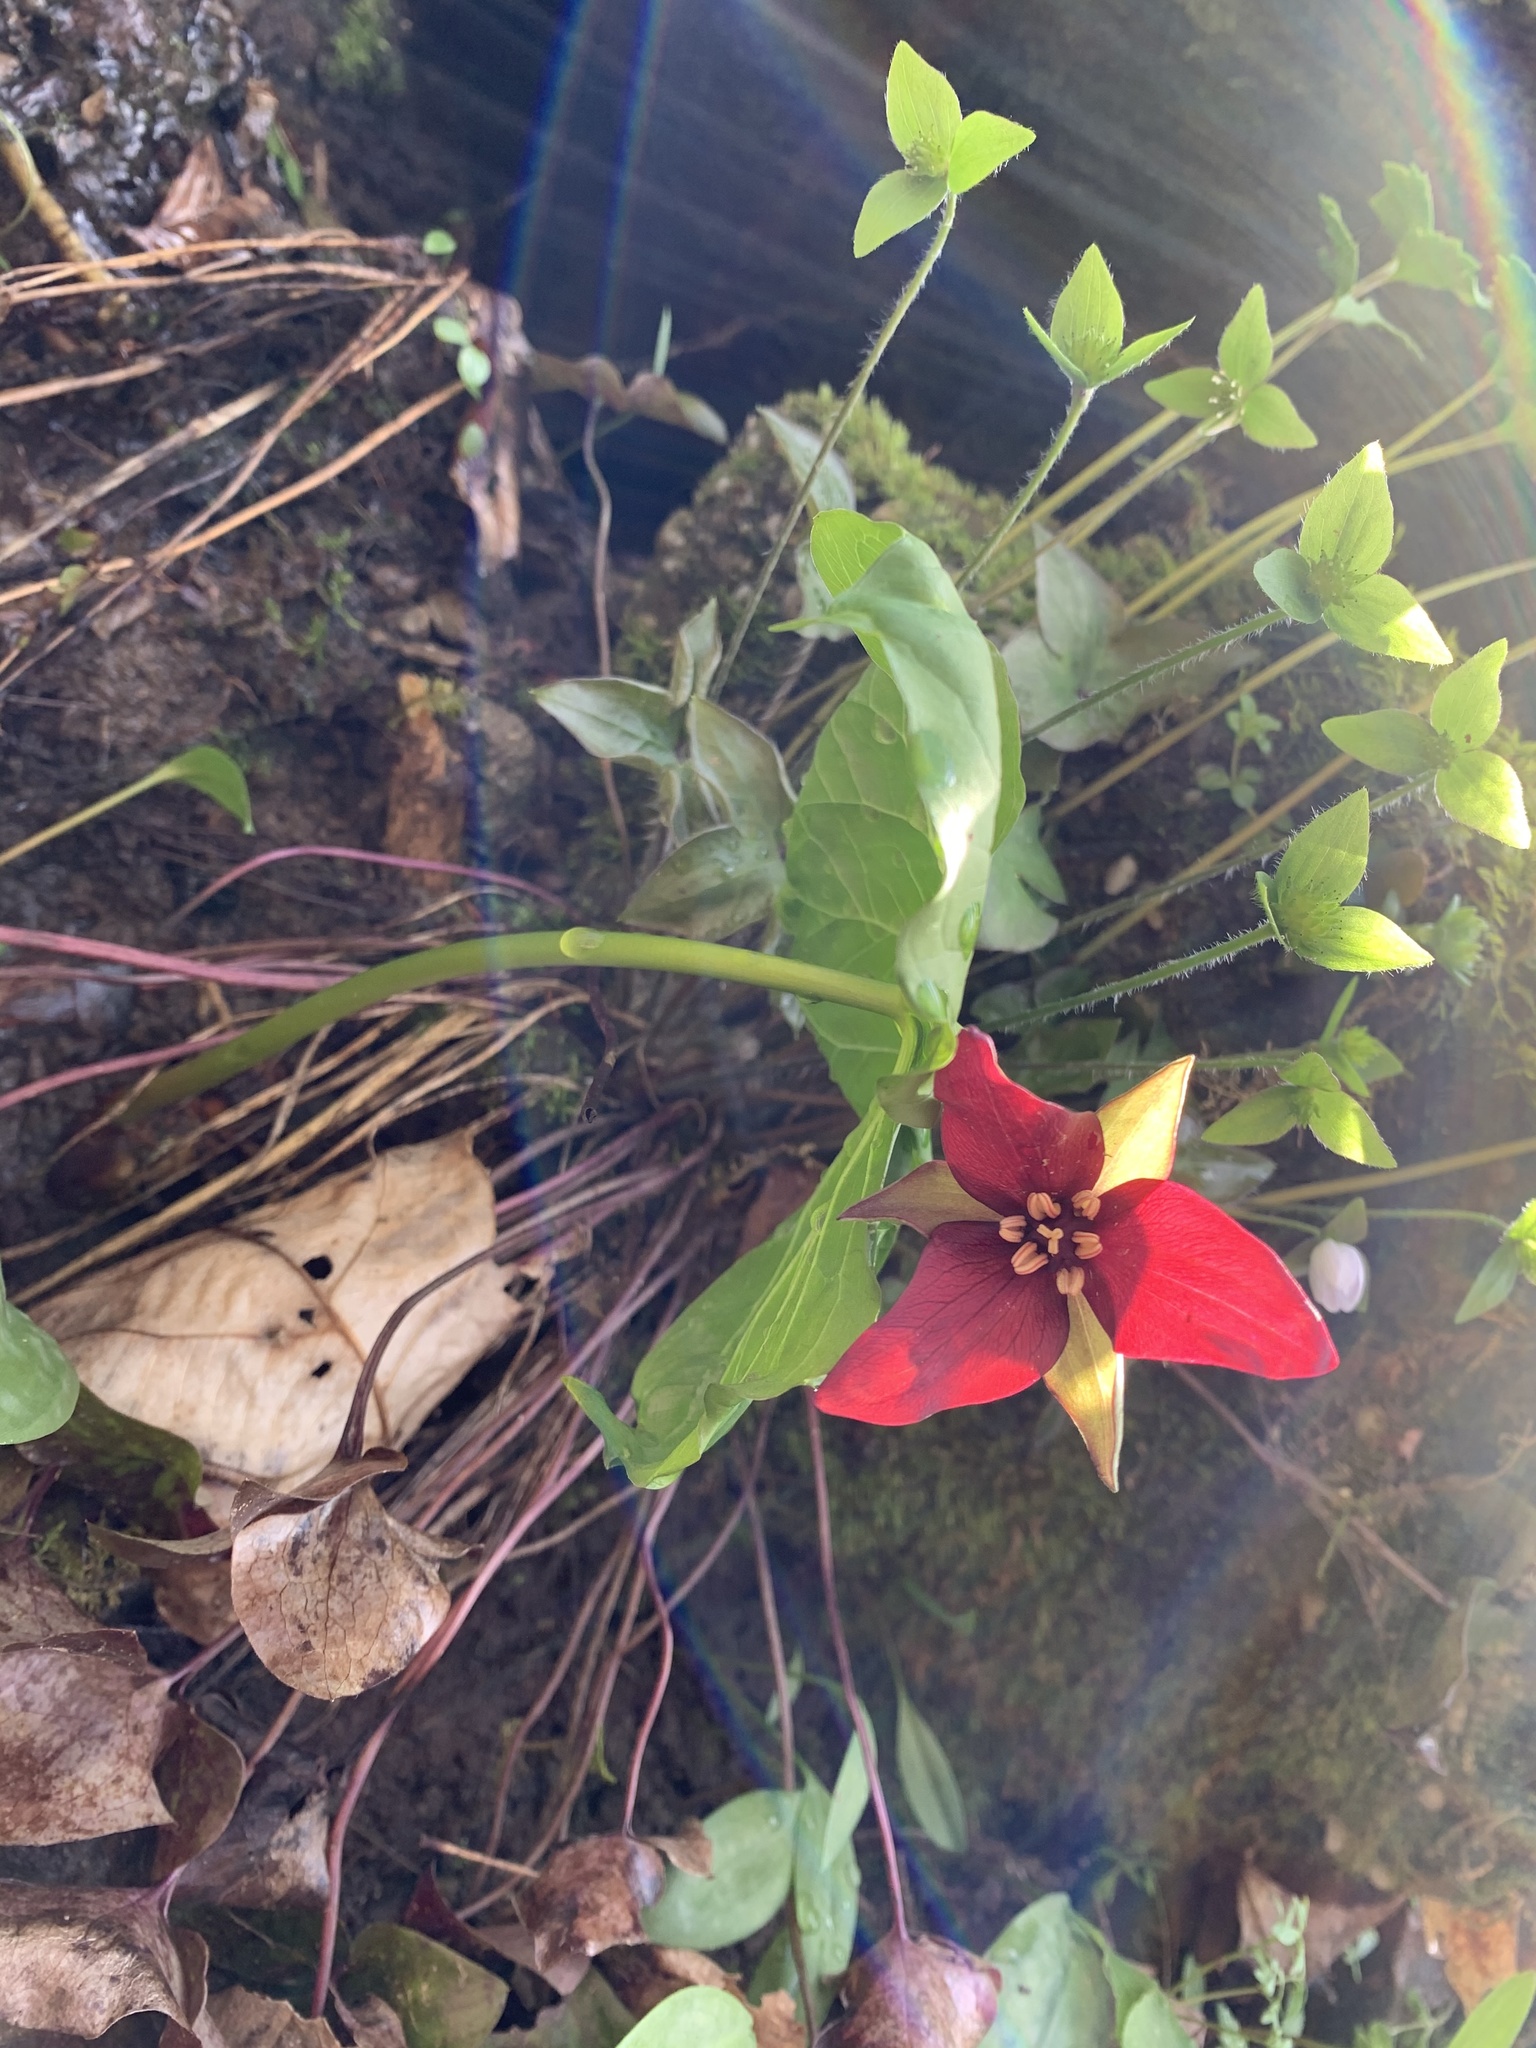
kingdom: Plantae
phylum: Tracheophyta
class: Liliopsida
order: Liliales
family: Melanthiaceae
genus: Trillium
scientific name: Trillium erectum
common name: Purple trillium
